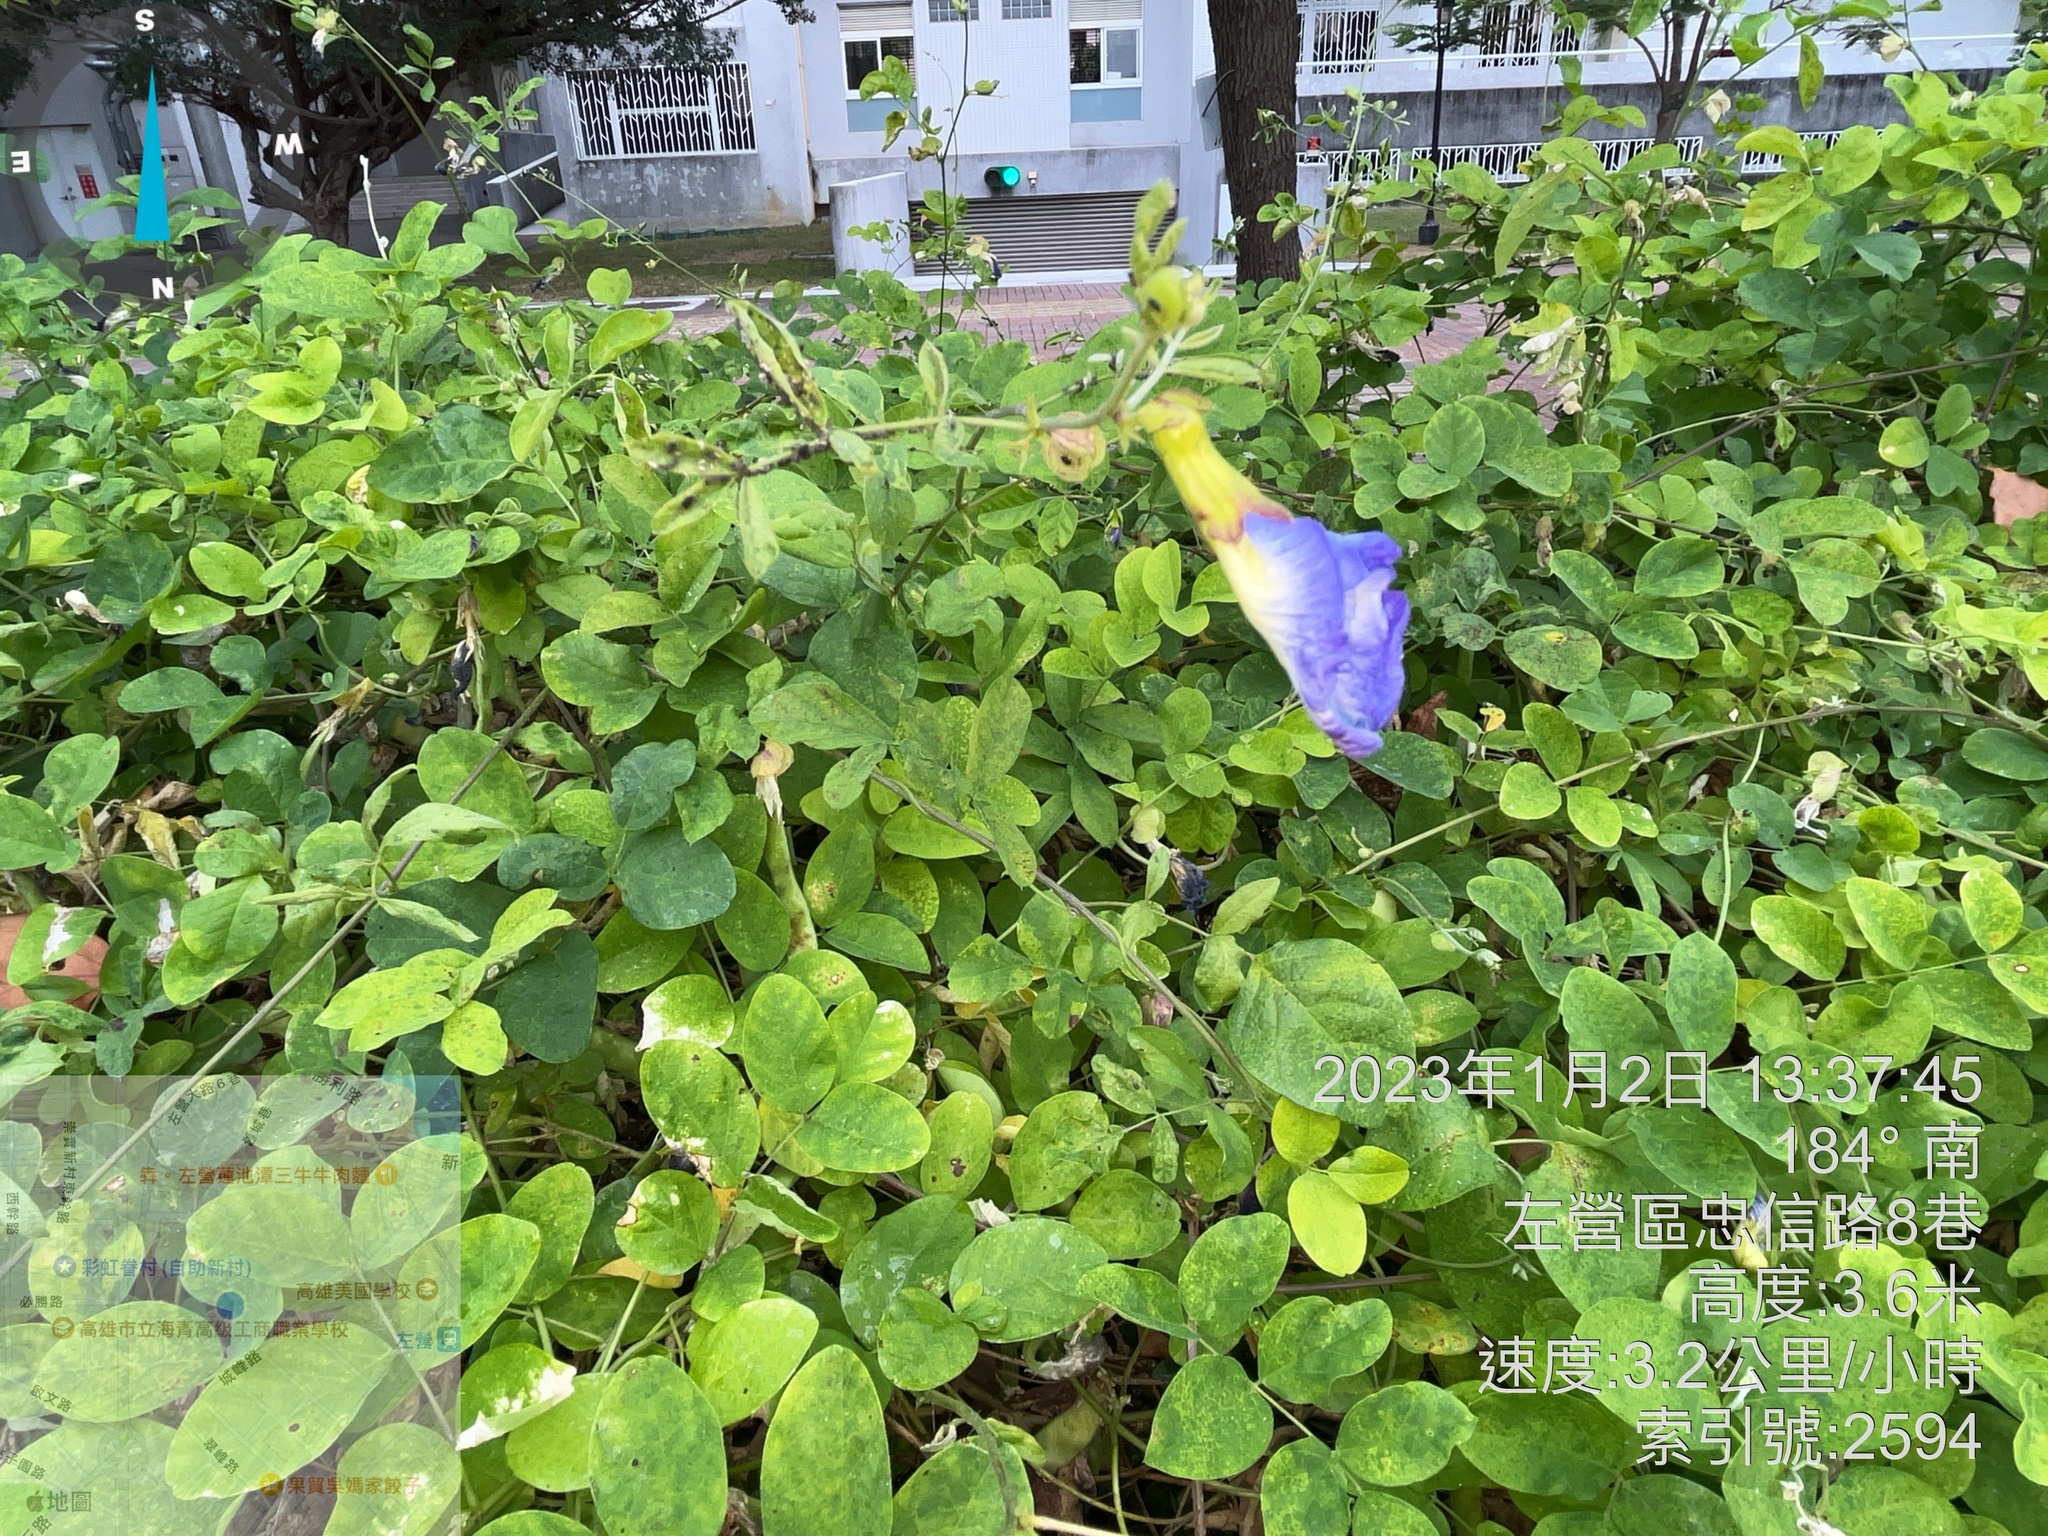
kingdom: Plantae
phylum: Tracheophyta
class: Magnoliopsida
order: Fabales
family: Fabaceae
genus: Clitoria
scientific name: Clitoria ternatea
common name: Asian pigeonwings
